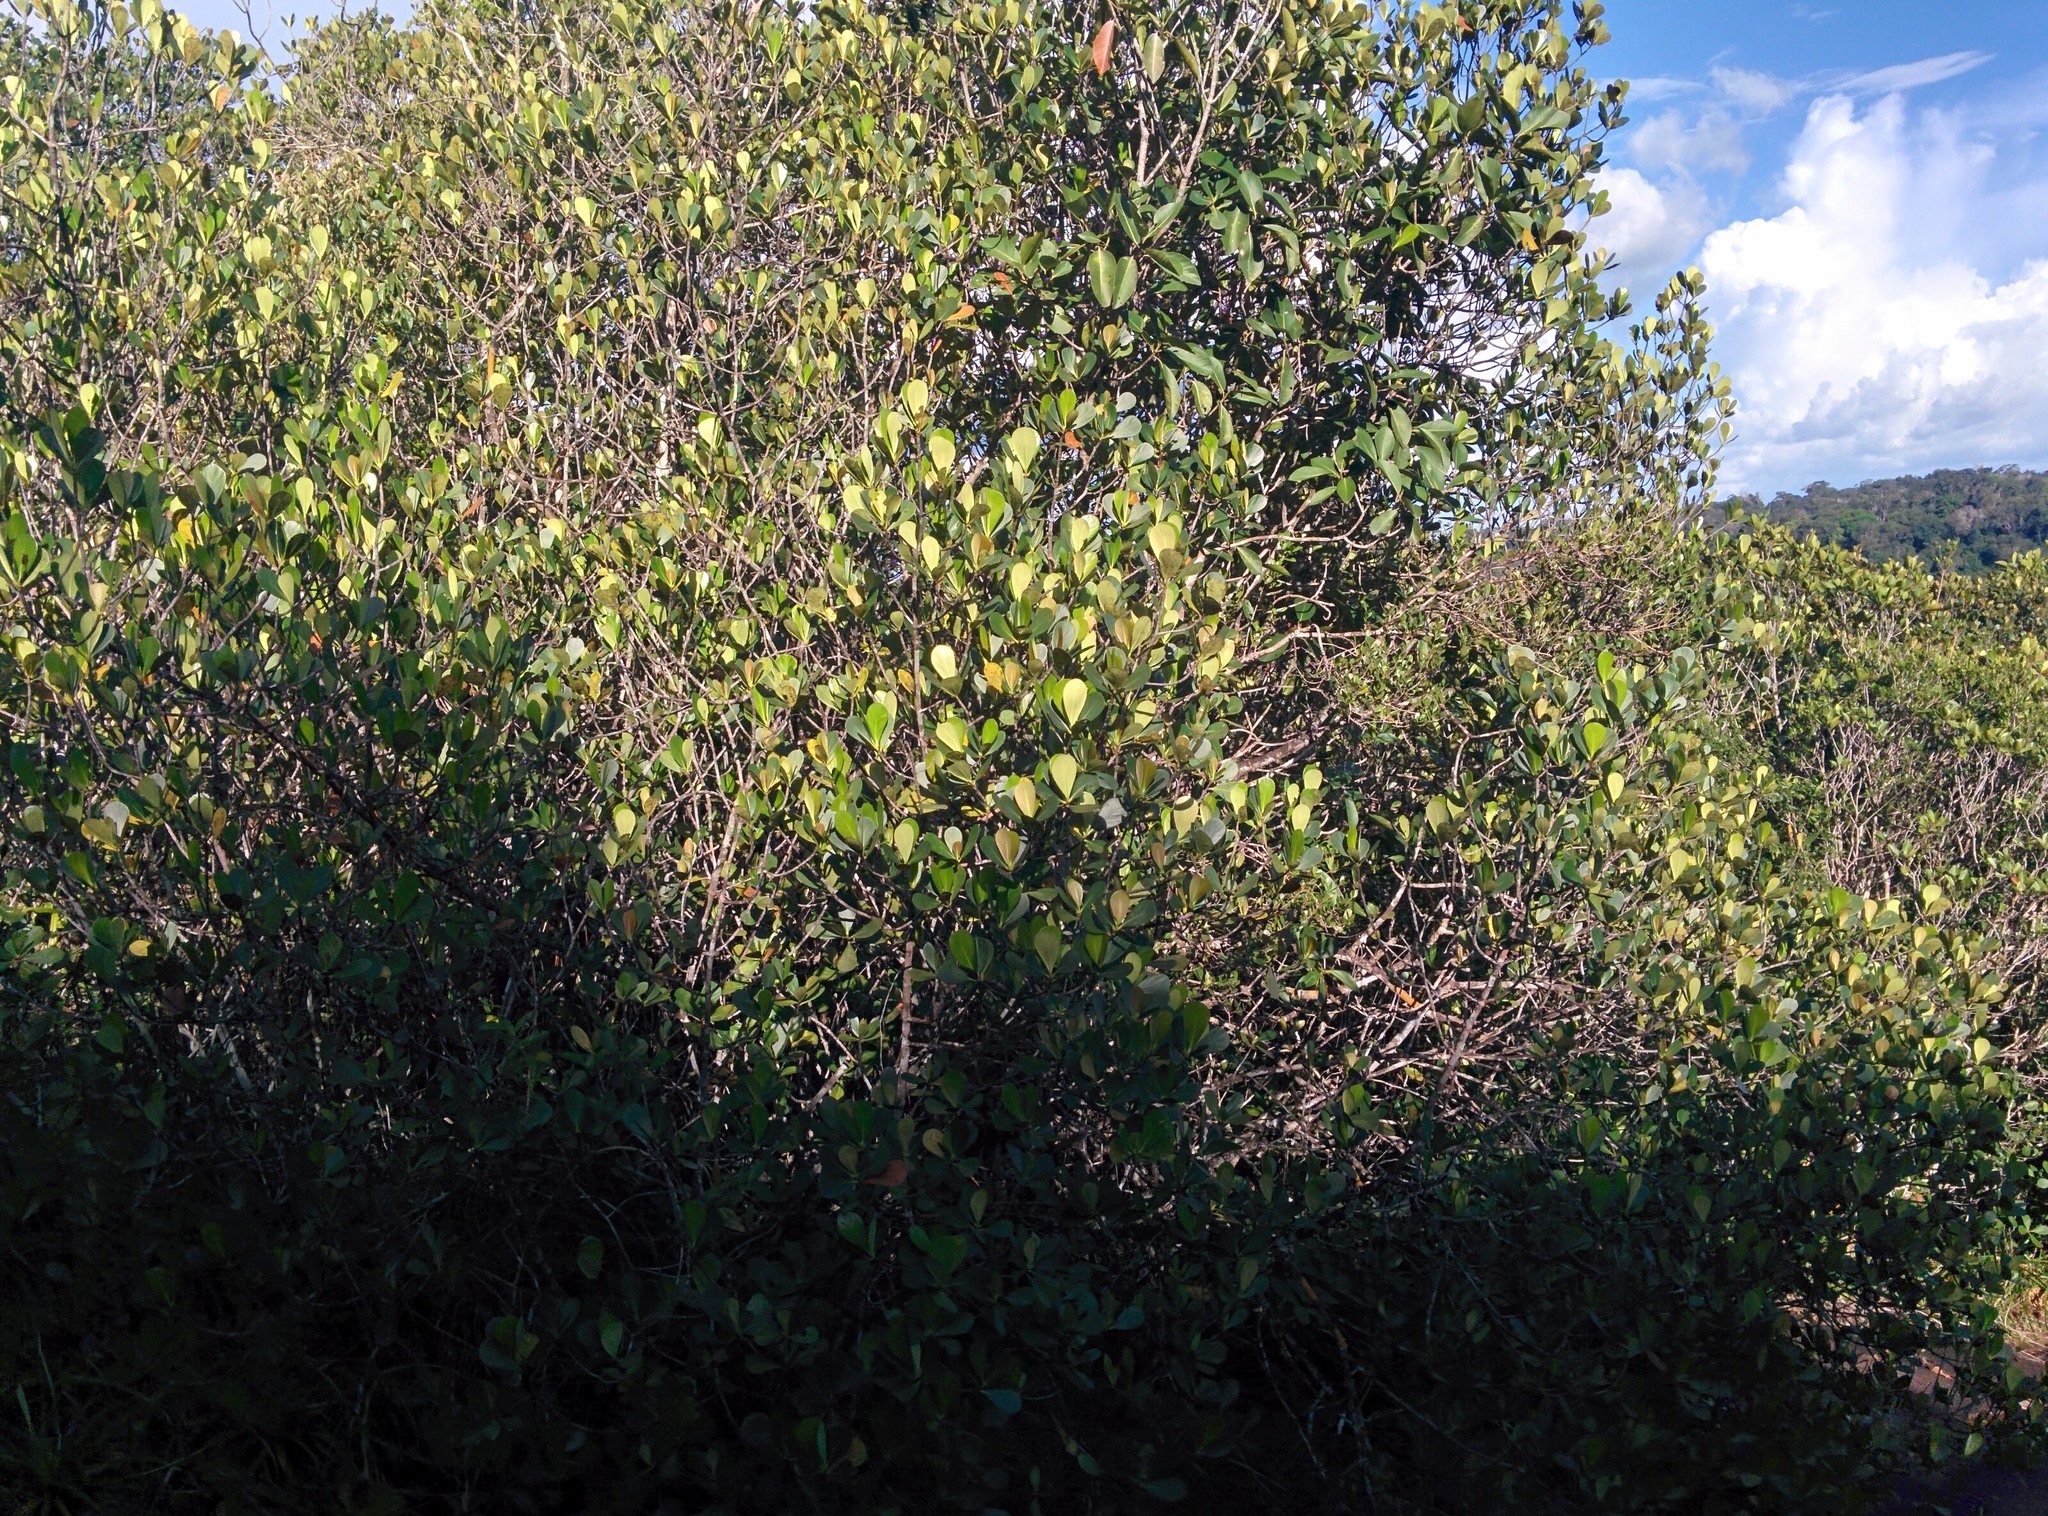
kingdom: Plantae
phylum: Tracheophyta
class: Magnoliopsida
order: Malpighiales
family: Clusiaceae
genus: Clusia
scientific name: Clusia
